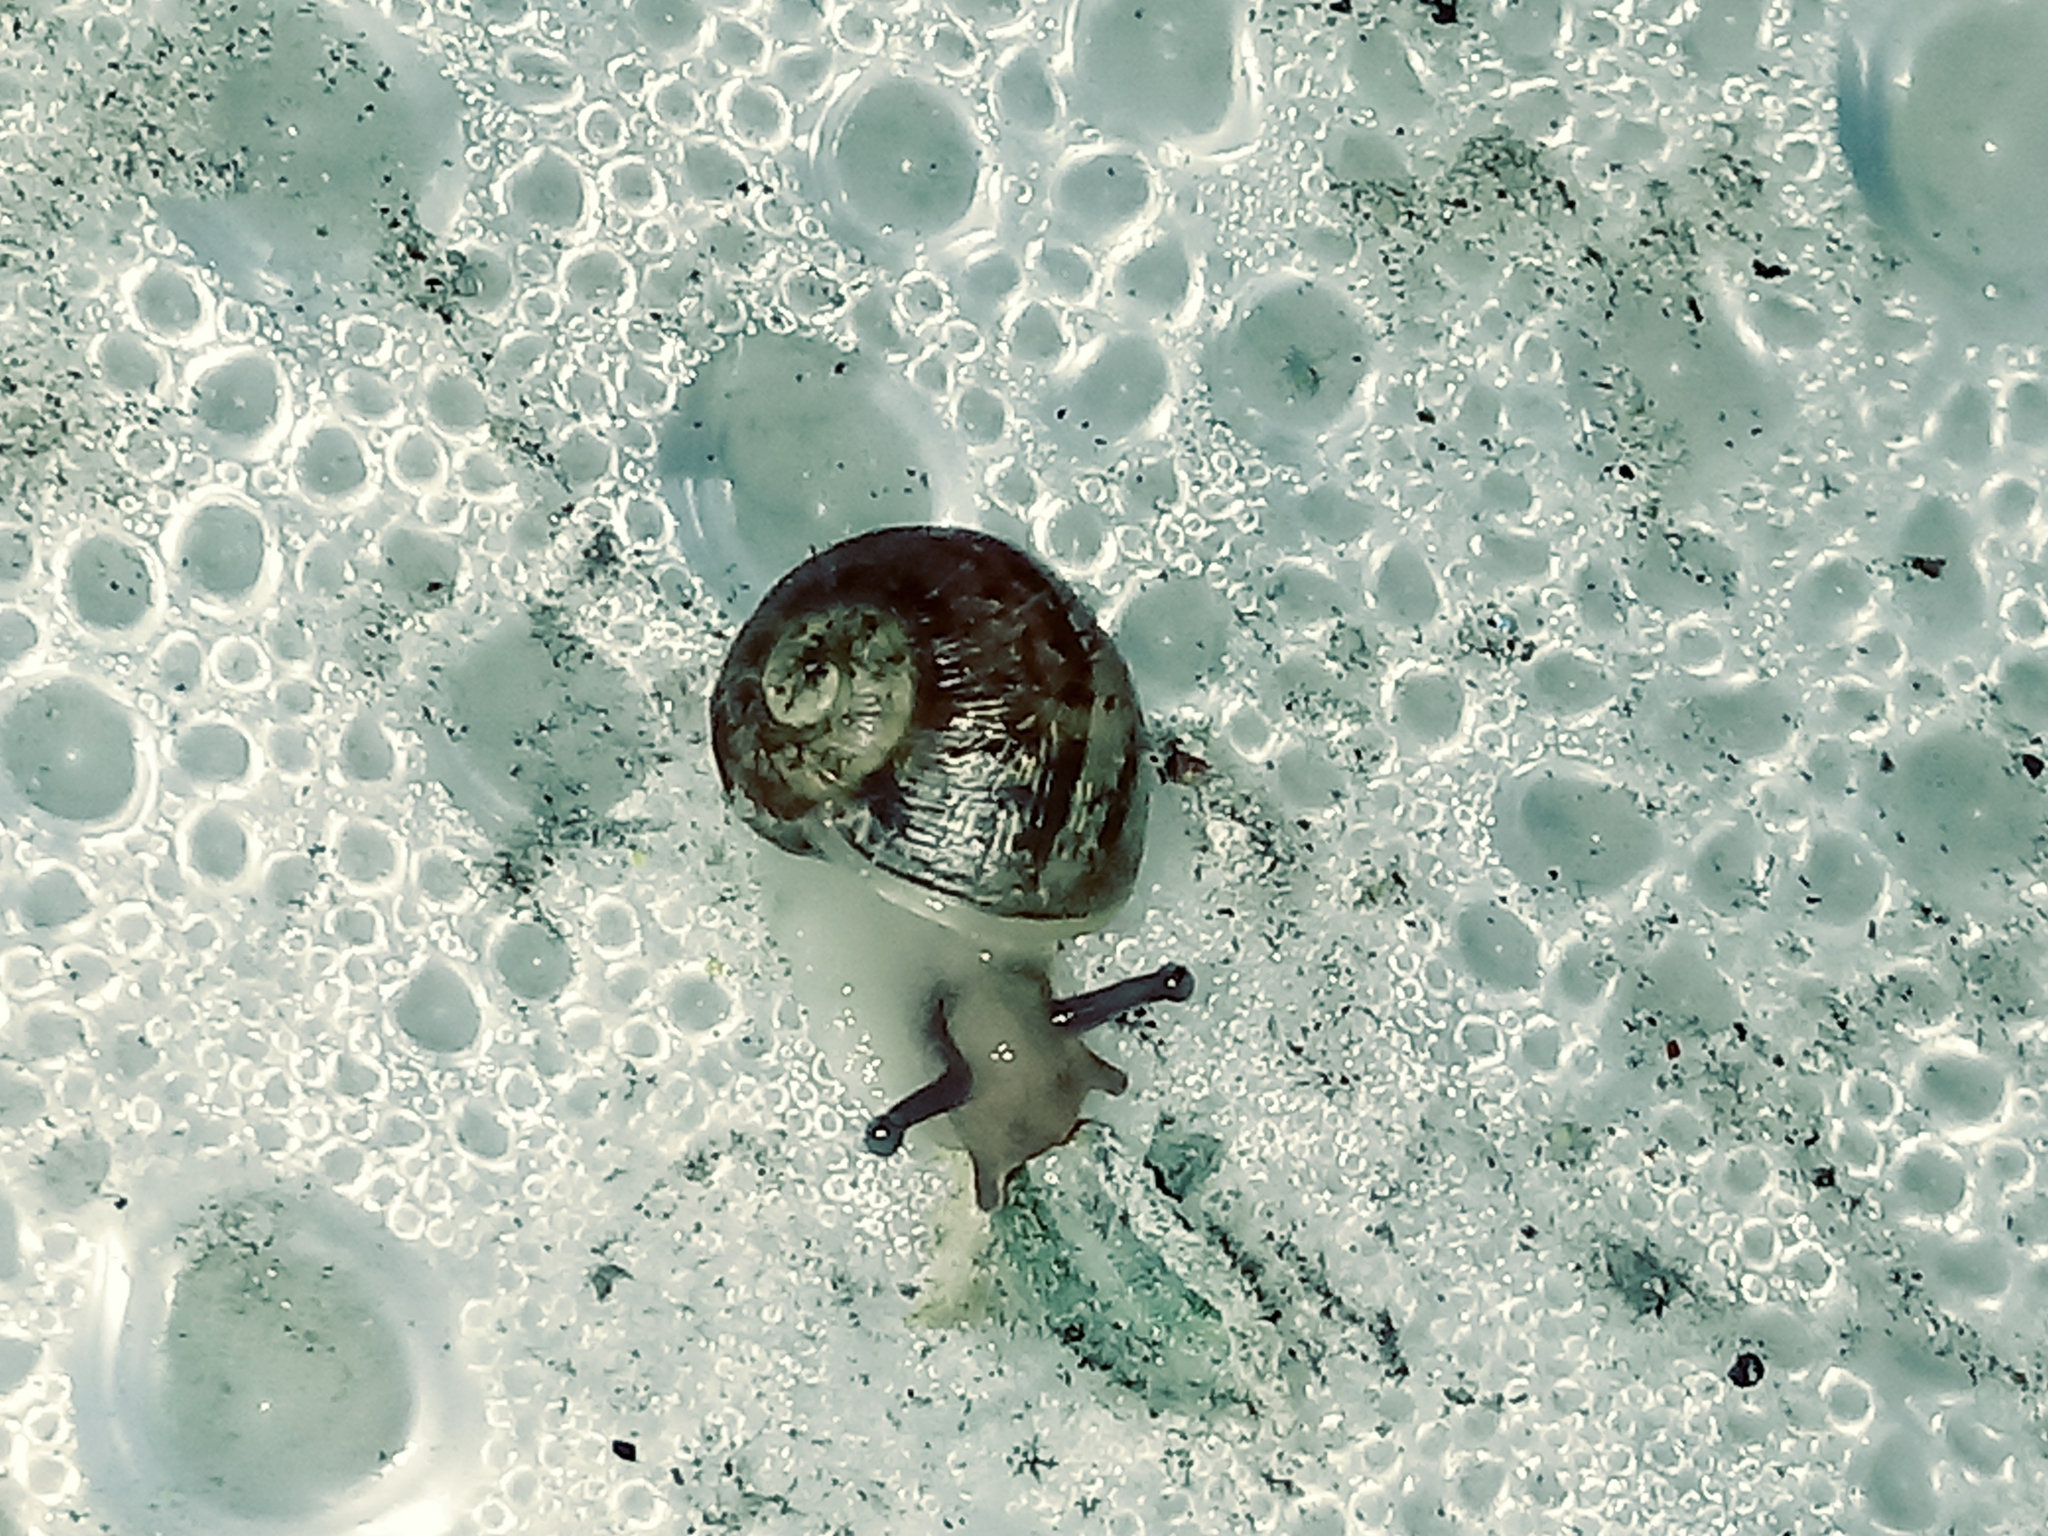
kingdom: Animalia
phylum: Mollusca
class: Gastropoda
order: Stylommatophora
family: Helicidae
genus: Cornu
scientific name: Cornu aspersum
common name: Brown garden snail
